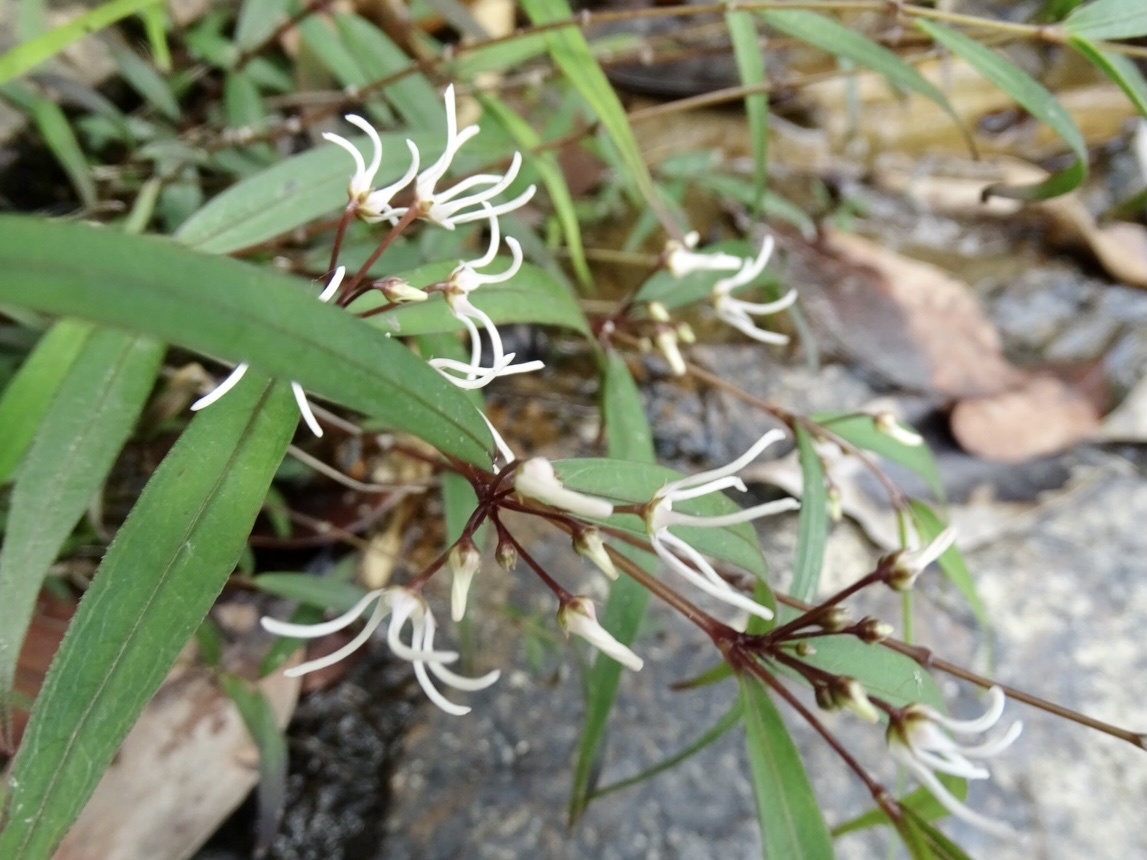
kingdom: Plantae
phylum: Tracheophyta
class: Magnoliopsida
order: Gentianales
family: Apocynaceae
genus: Pentasachme
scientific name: Pentasachme caudatum
